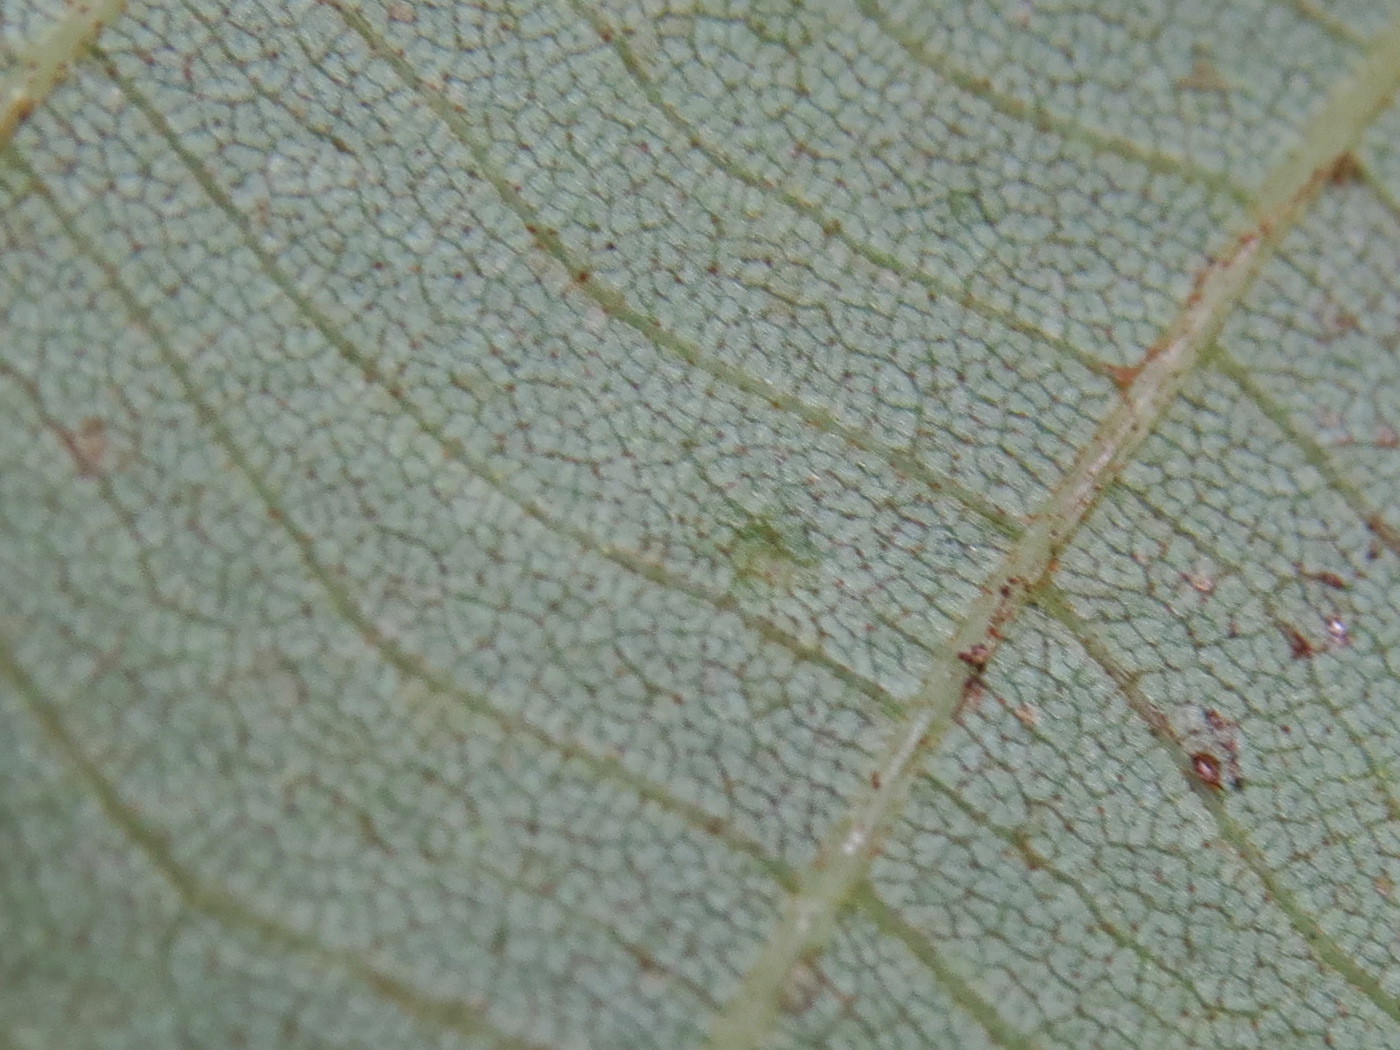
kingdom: Animalia
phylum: Arthropoda
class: Insecta
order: Diptera
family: Cecidomyiidae
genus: Caryomyia
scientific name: Caryomyia urnula
